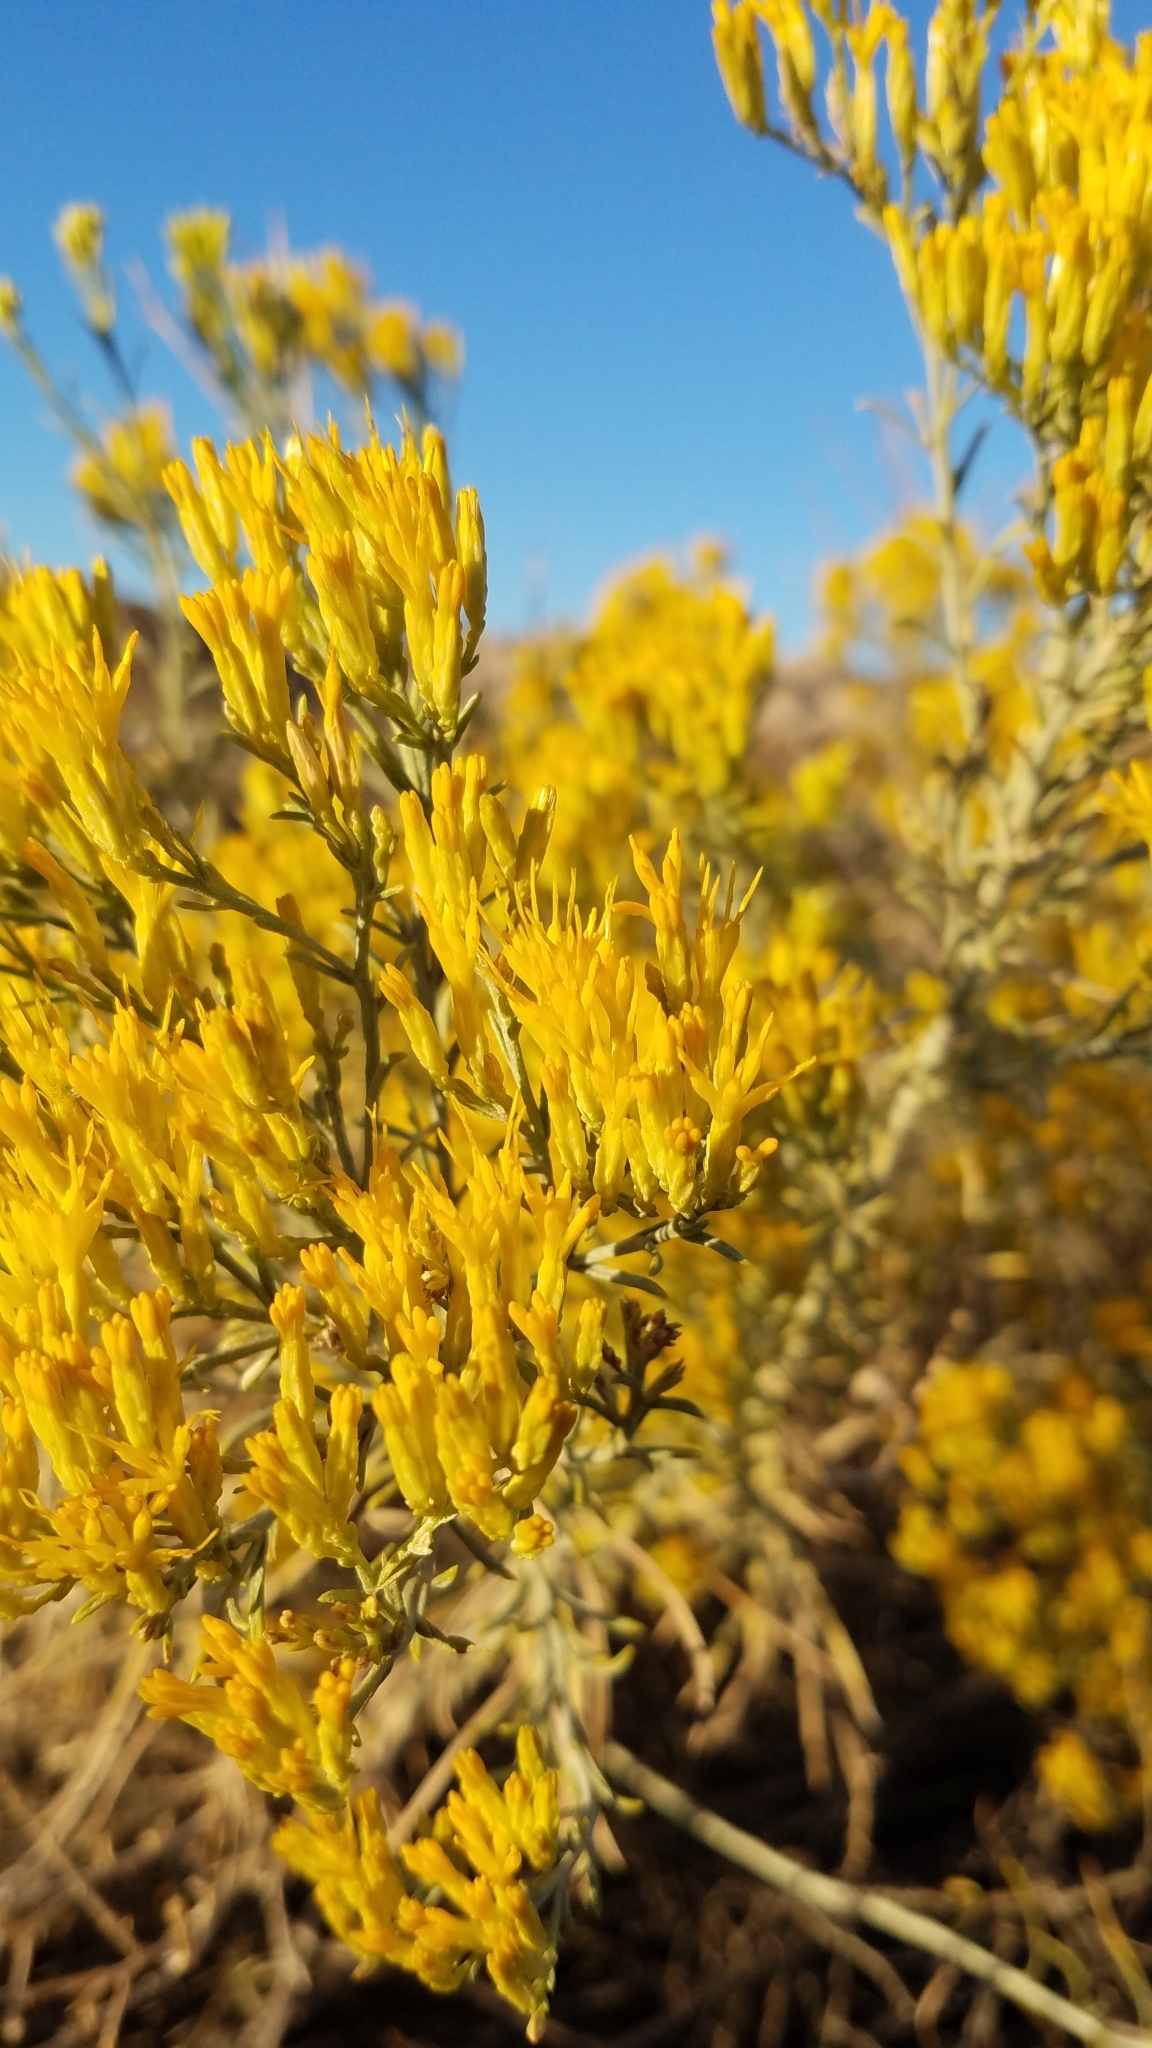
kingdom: Plantae
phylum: Tracheophyta
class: Magnoliopsida
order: Asterales
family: Asteraceae
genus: Ericameria
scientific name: Ericameria nauseosa
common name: Rubber rabbitbrush
